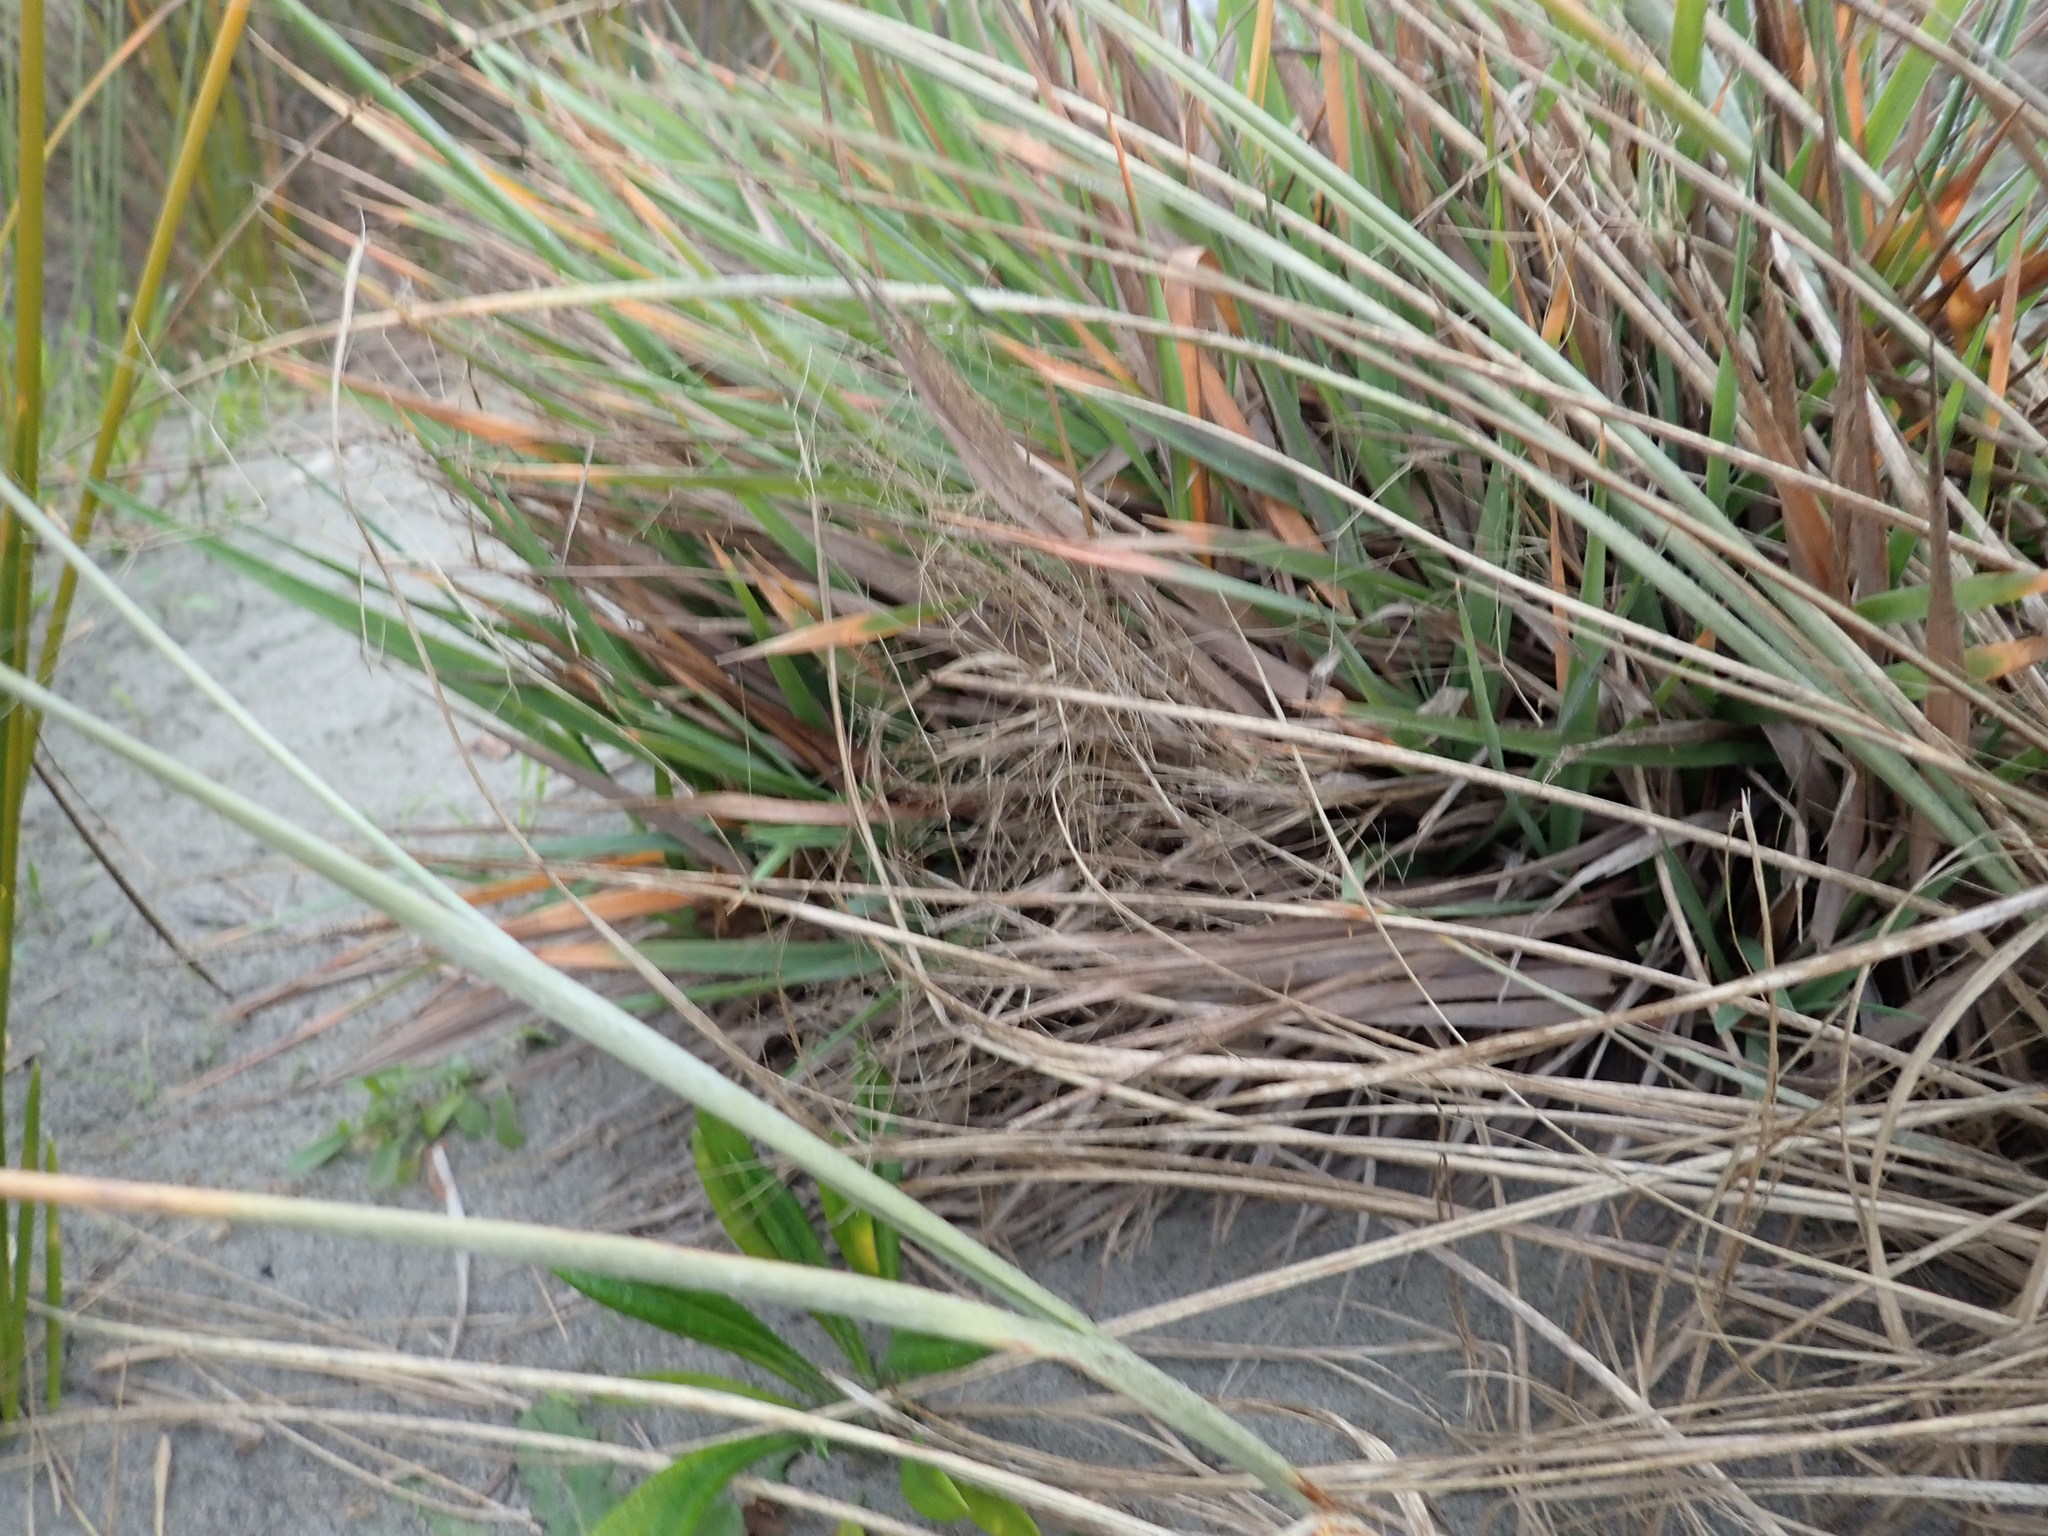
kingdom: Plantae
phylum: Tracheophyta
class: Liliopsida
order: Poales
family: Poaceae
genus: Lachnagrostis
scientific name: Lachnagrostis billardierei
